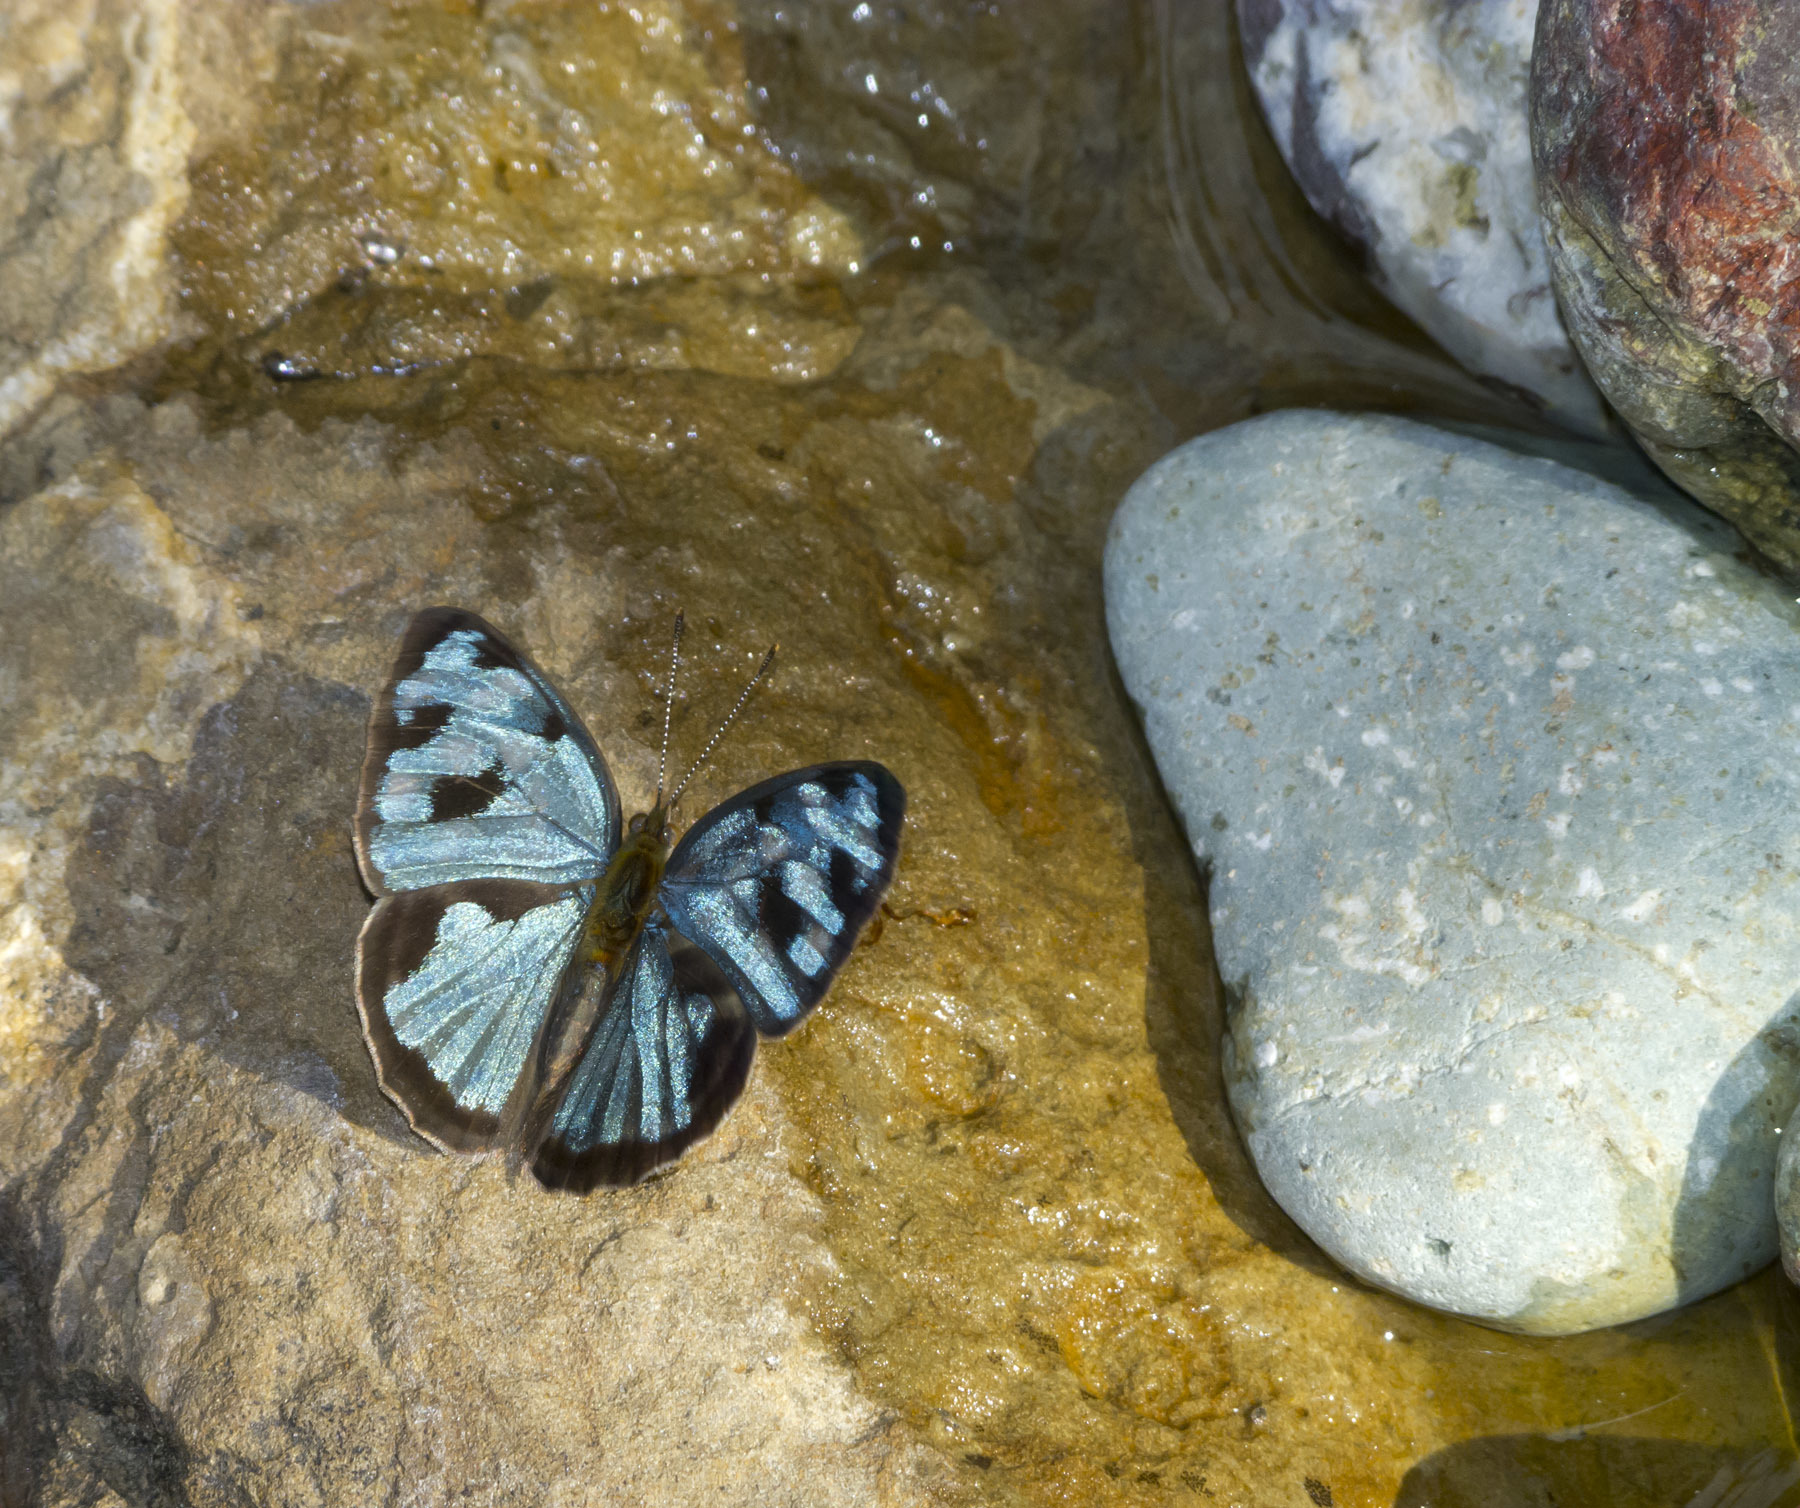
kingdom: Animalia
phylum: Arthropoda
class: Insecta
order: Lepidoptera
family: Nymphalidae
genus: Dynamine
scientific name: Dynamine mylitta
